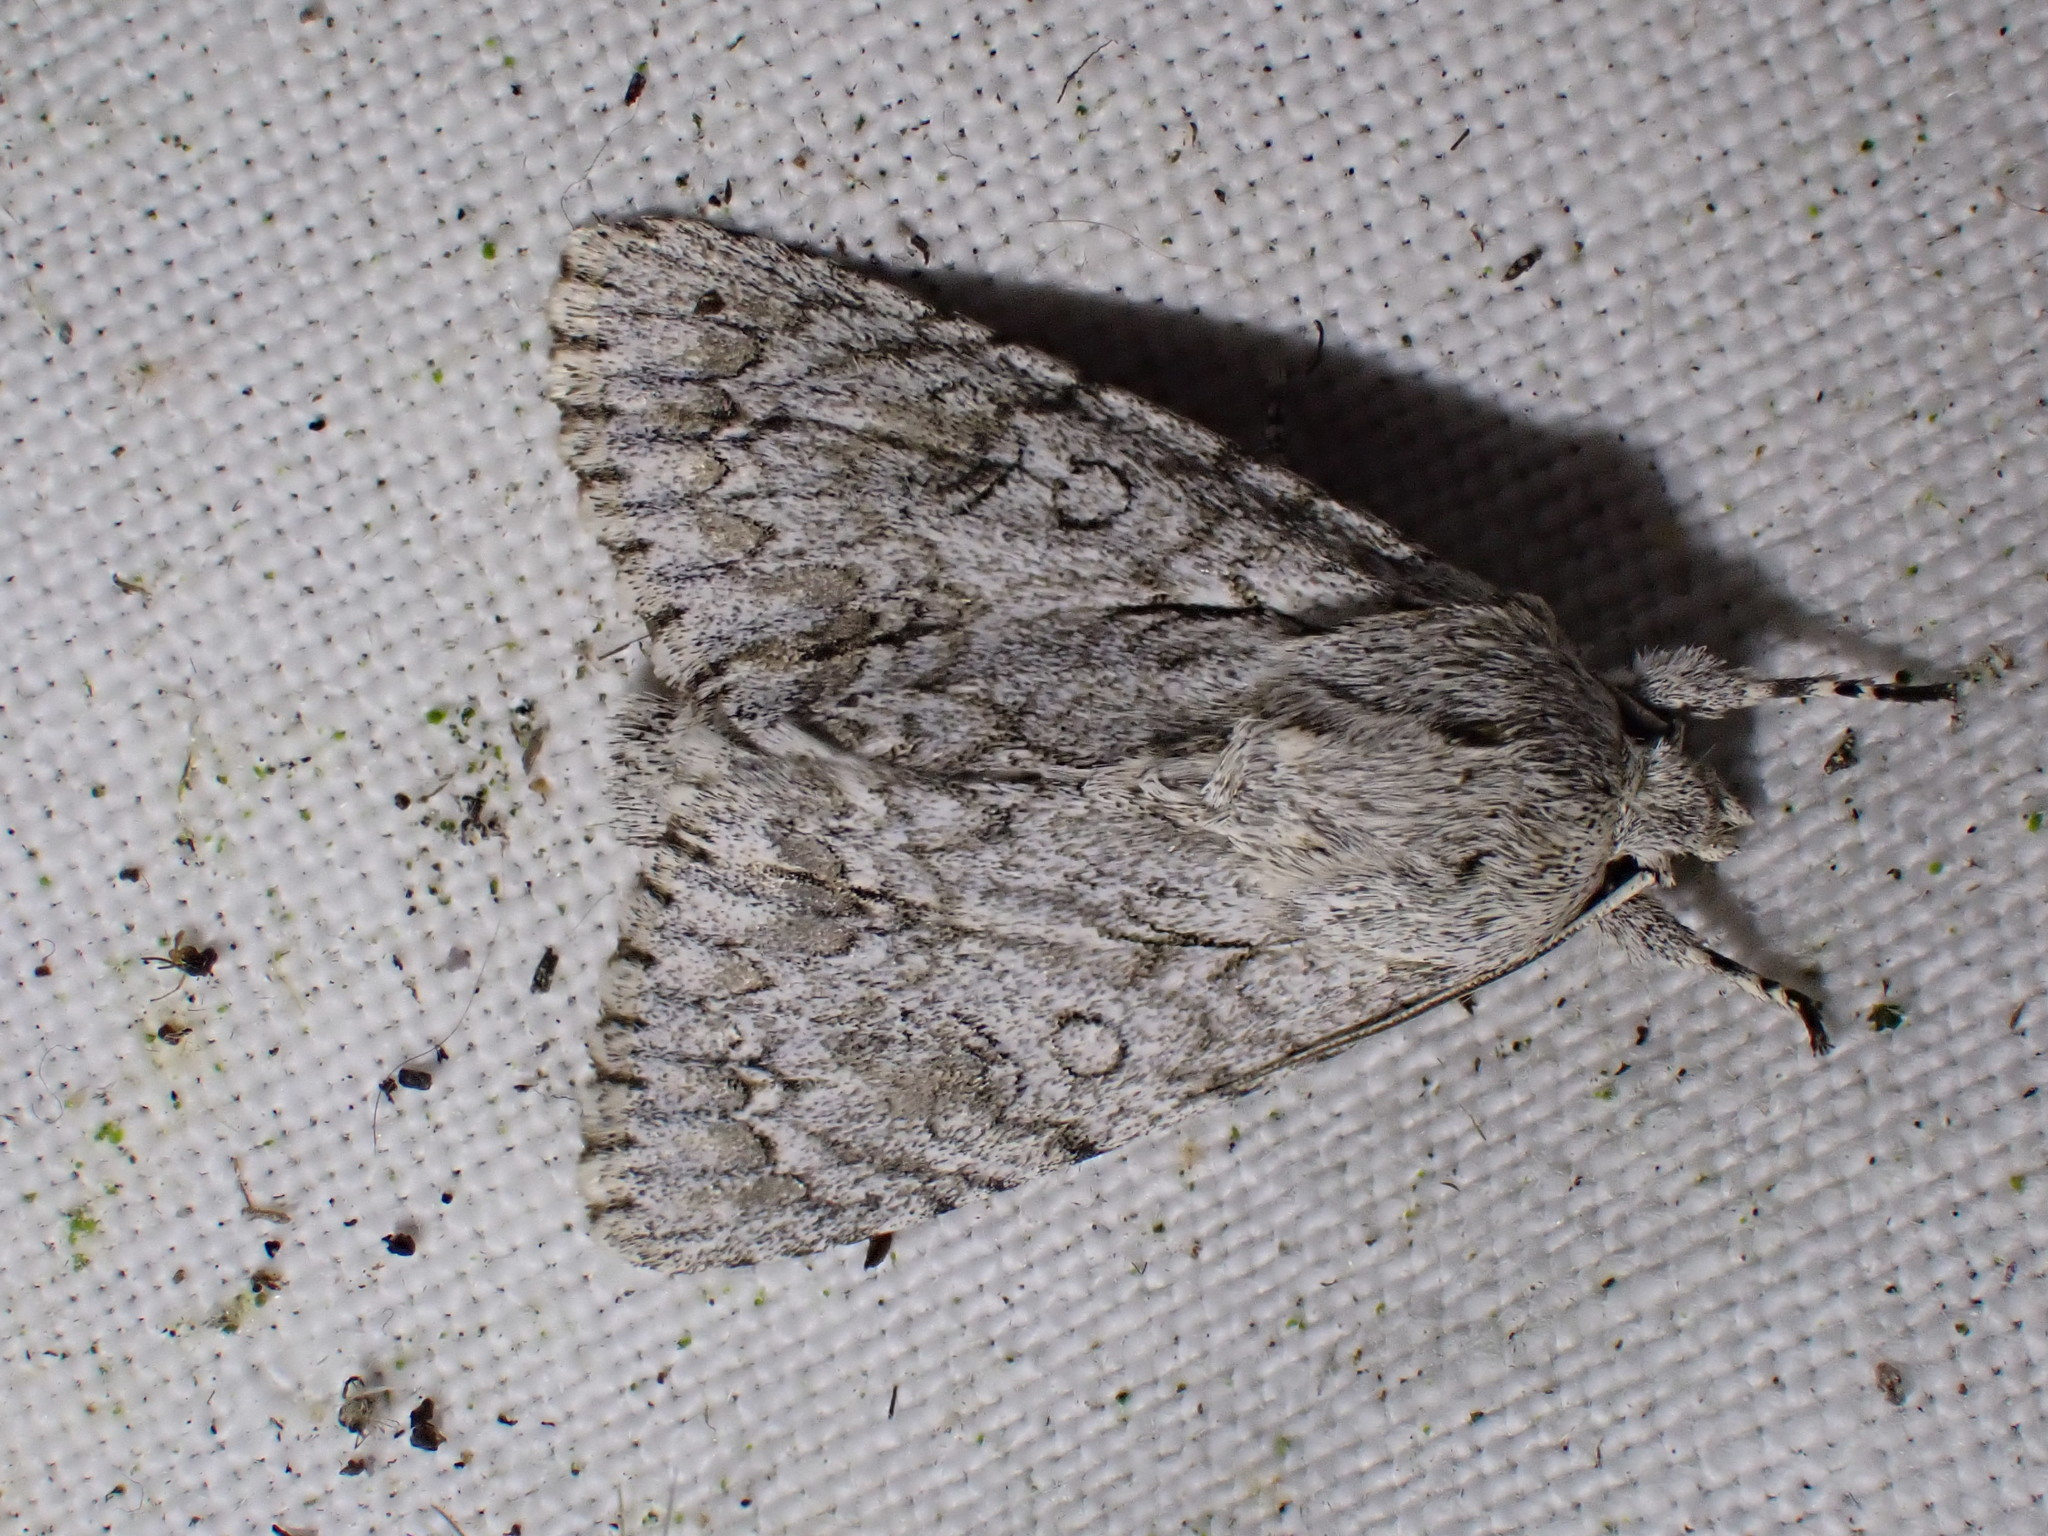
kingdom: Animalia
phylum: Arthropoda
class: Insecta
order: Lepidoptera
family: Noctuidae
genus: Acronicta
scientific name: Acronicta aceris
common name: Sycamore
